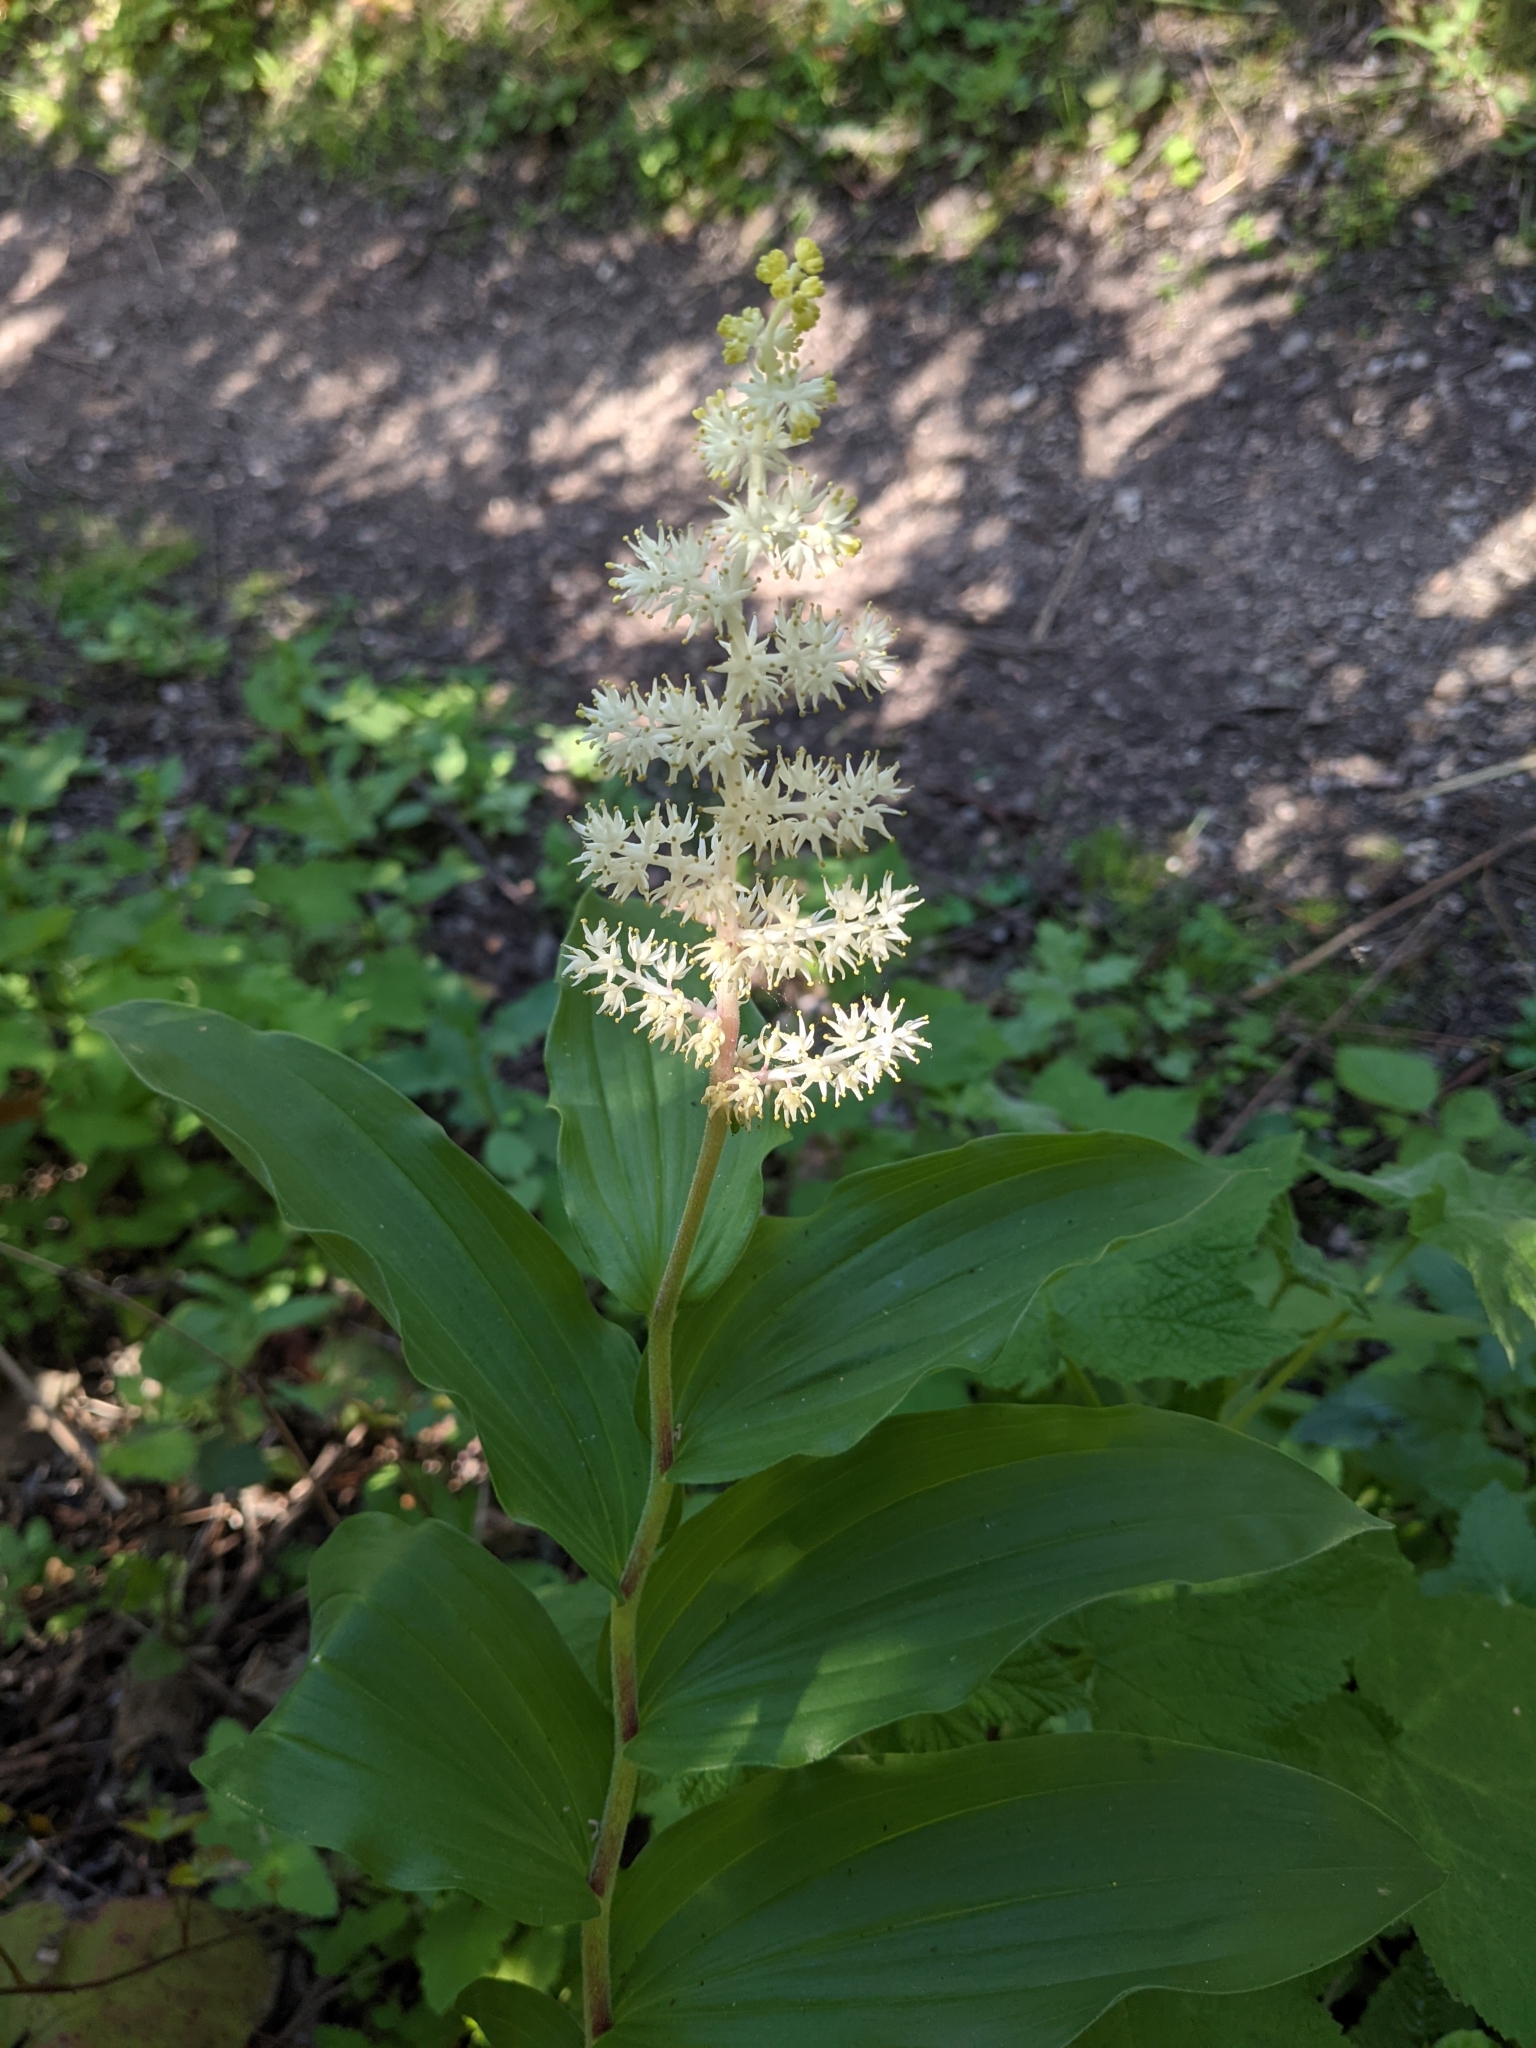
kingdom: Plantae
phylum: Tracheophyta
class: Liliopsida
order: Asparagales
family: Asparagaceae
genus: Maianthemum
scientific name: Maianthemum racemosum
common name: False spikenard
